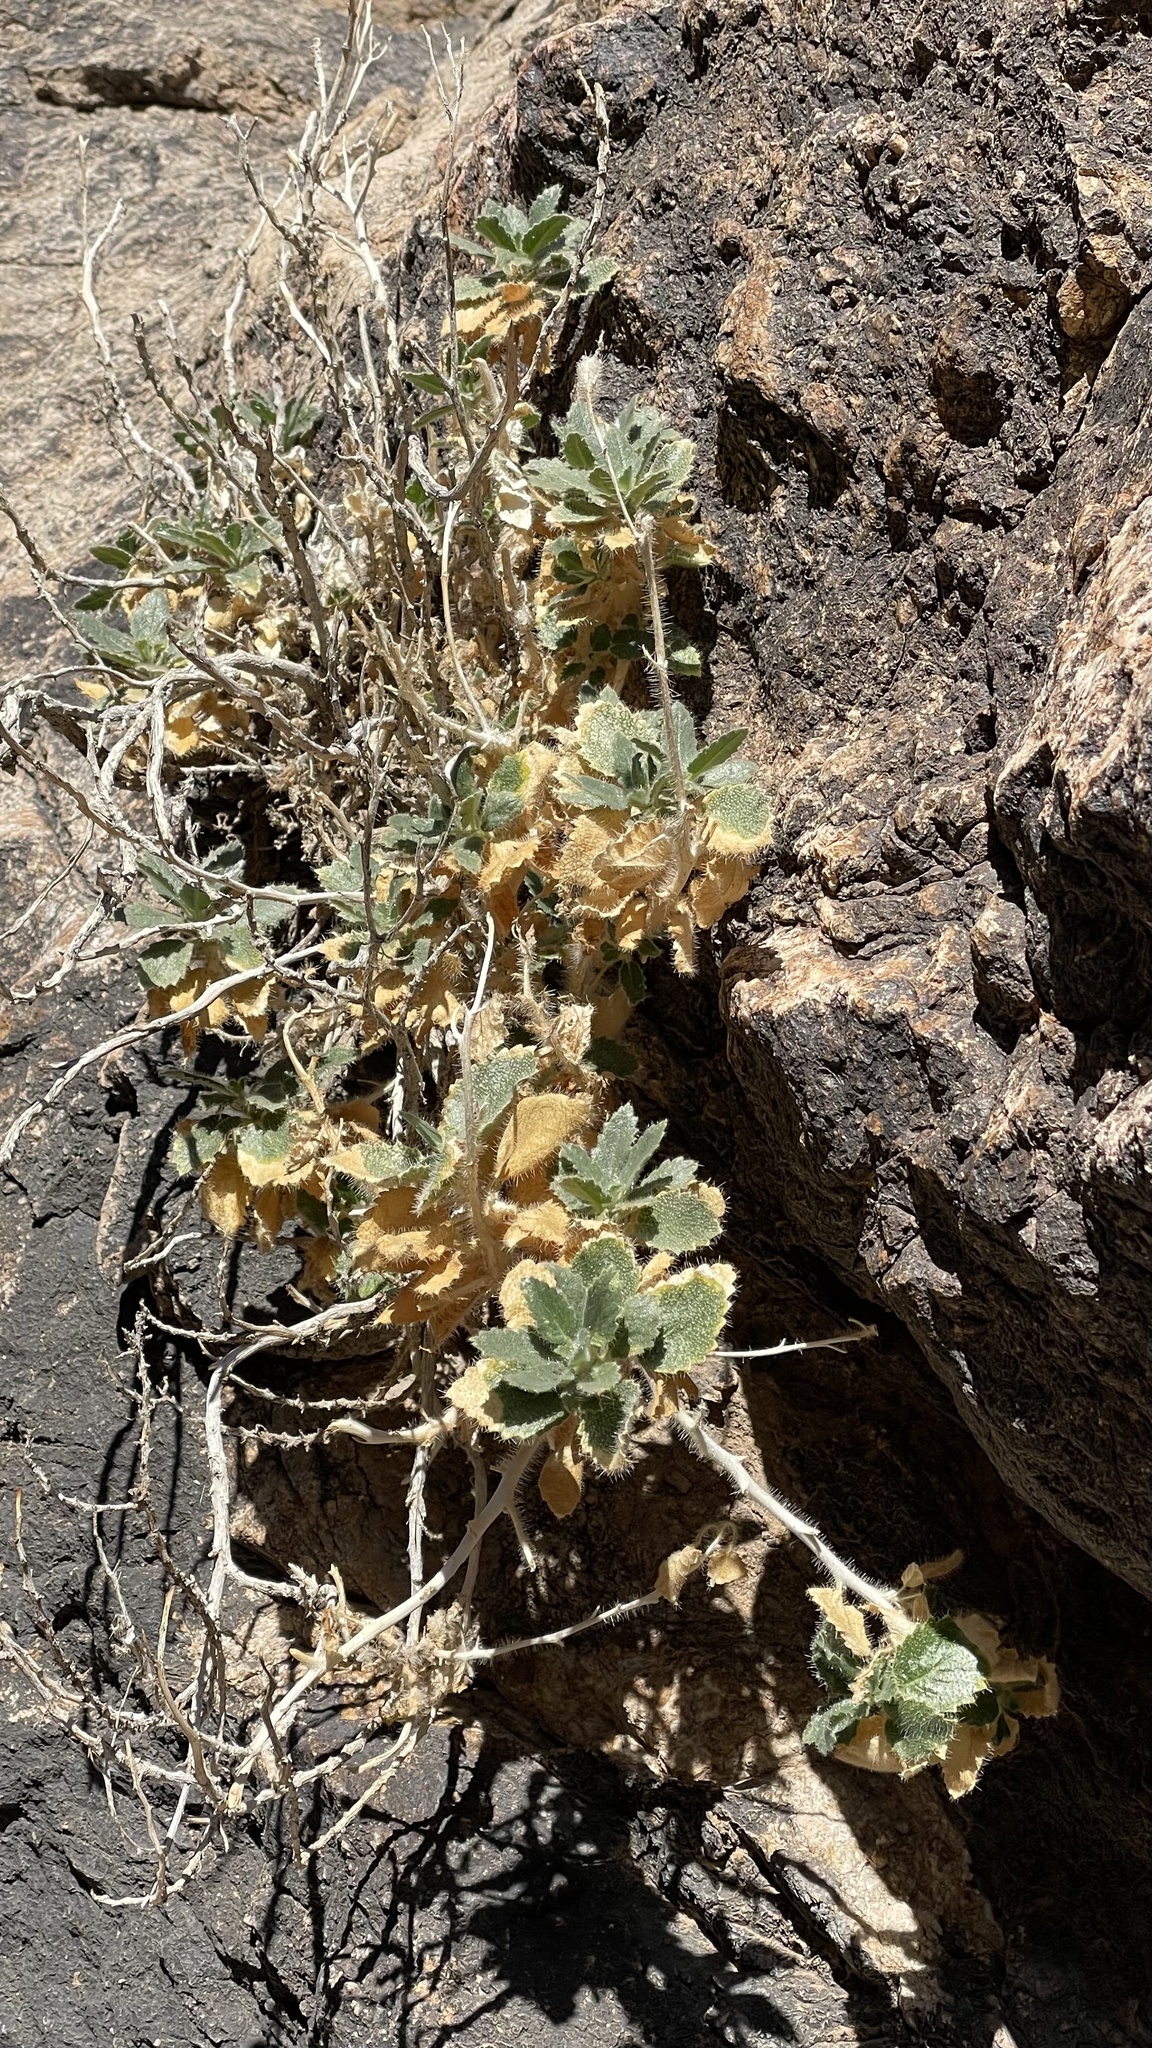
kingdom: Plantae
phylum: Tracheophyta
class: Magnoliopsida
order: Cornales
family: Loasaceae
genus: Eucnide
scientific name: Eucnide urens
